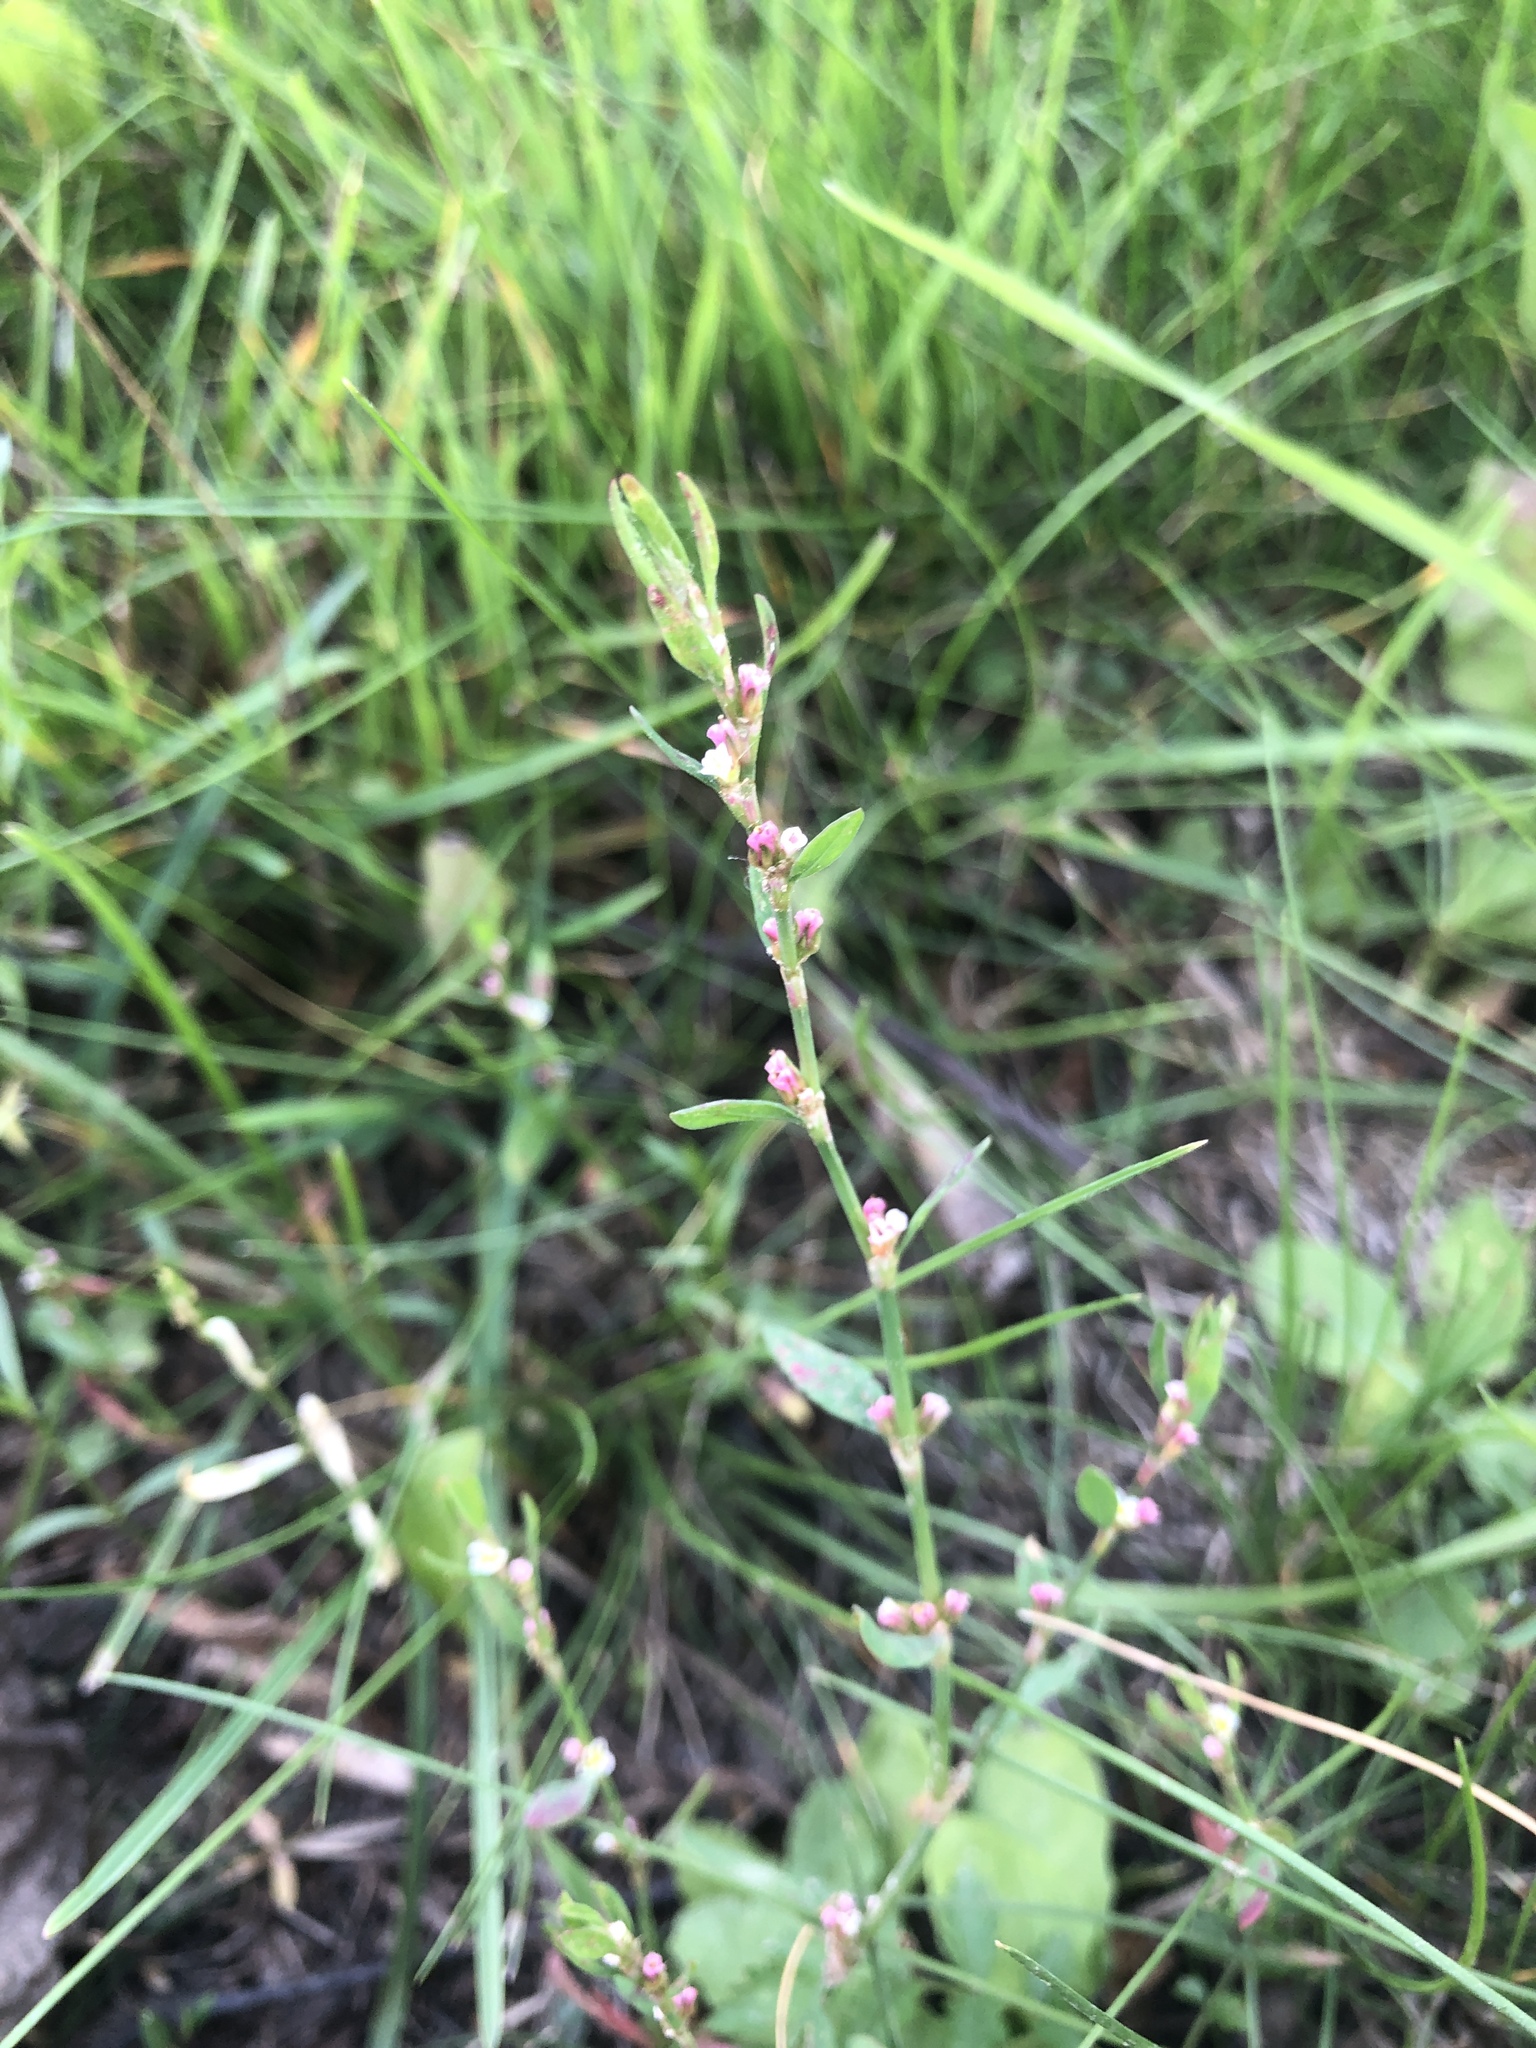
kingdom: Plantae
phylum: Tracheophyta
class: Magnoliopsida
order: Caryophyllales
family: Polygonaceae
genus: Polygonum
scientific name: Polygonum
